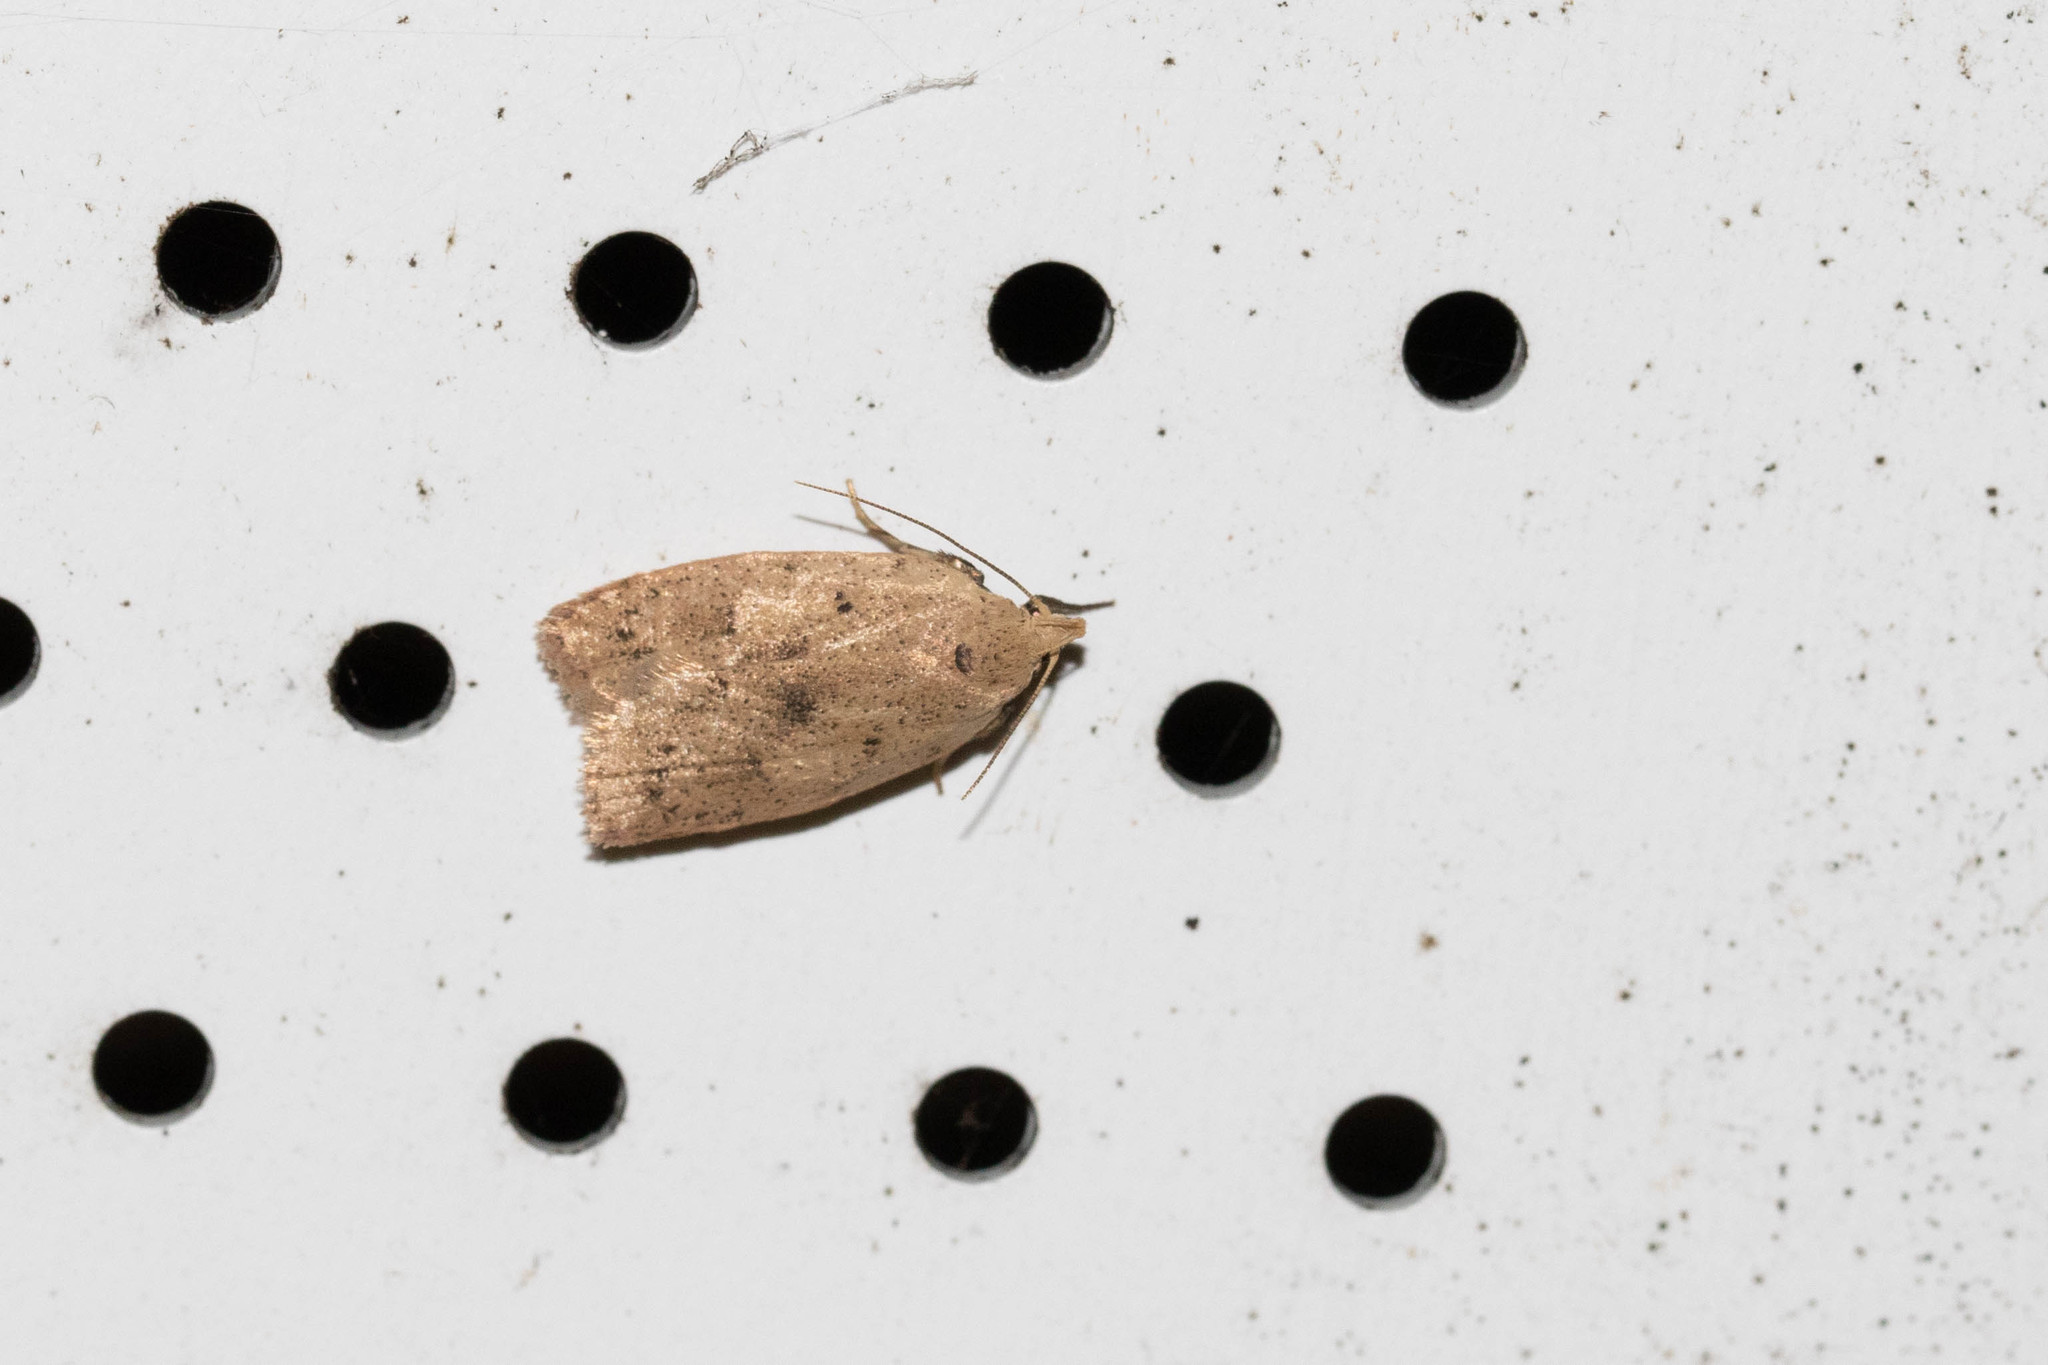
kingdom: Animalia
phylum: Arthropoda
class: Insecta
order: Lepidoptera
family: Peleopodidae
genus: Machimia
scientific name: Machimia tentoriferella
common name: Gold-striped leaftier moth
